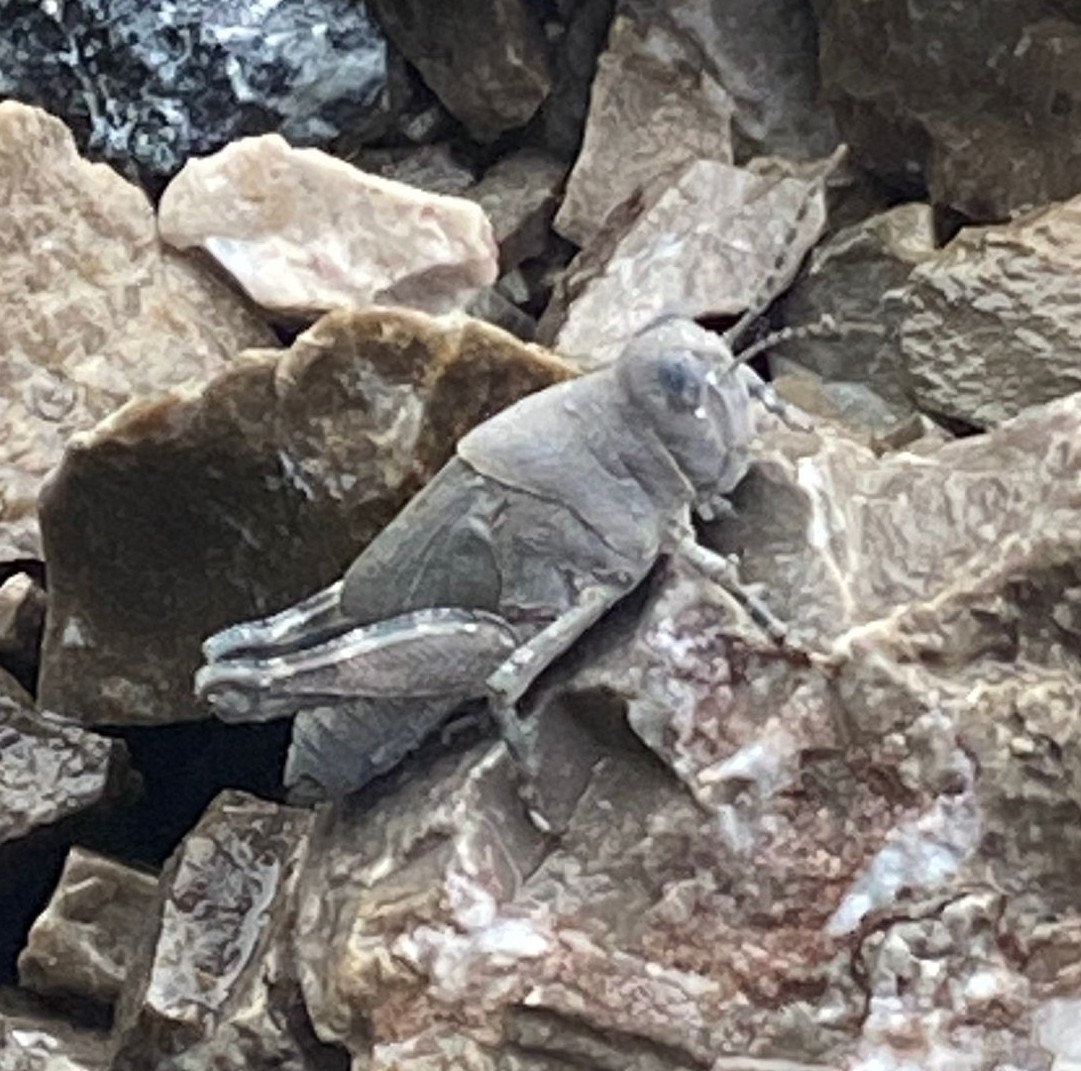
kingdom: Animalia
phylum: Arthropoda
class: Insecta
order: Orthoptera
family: Acrididae
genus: Sphingonotus
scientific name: Sphingonotus caerulans
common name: Blue-winged locust
